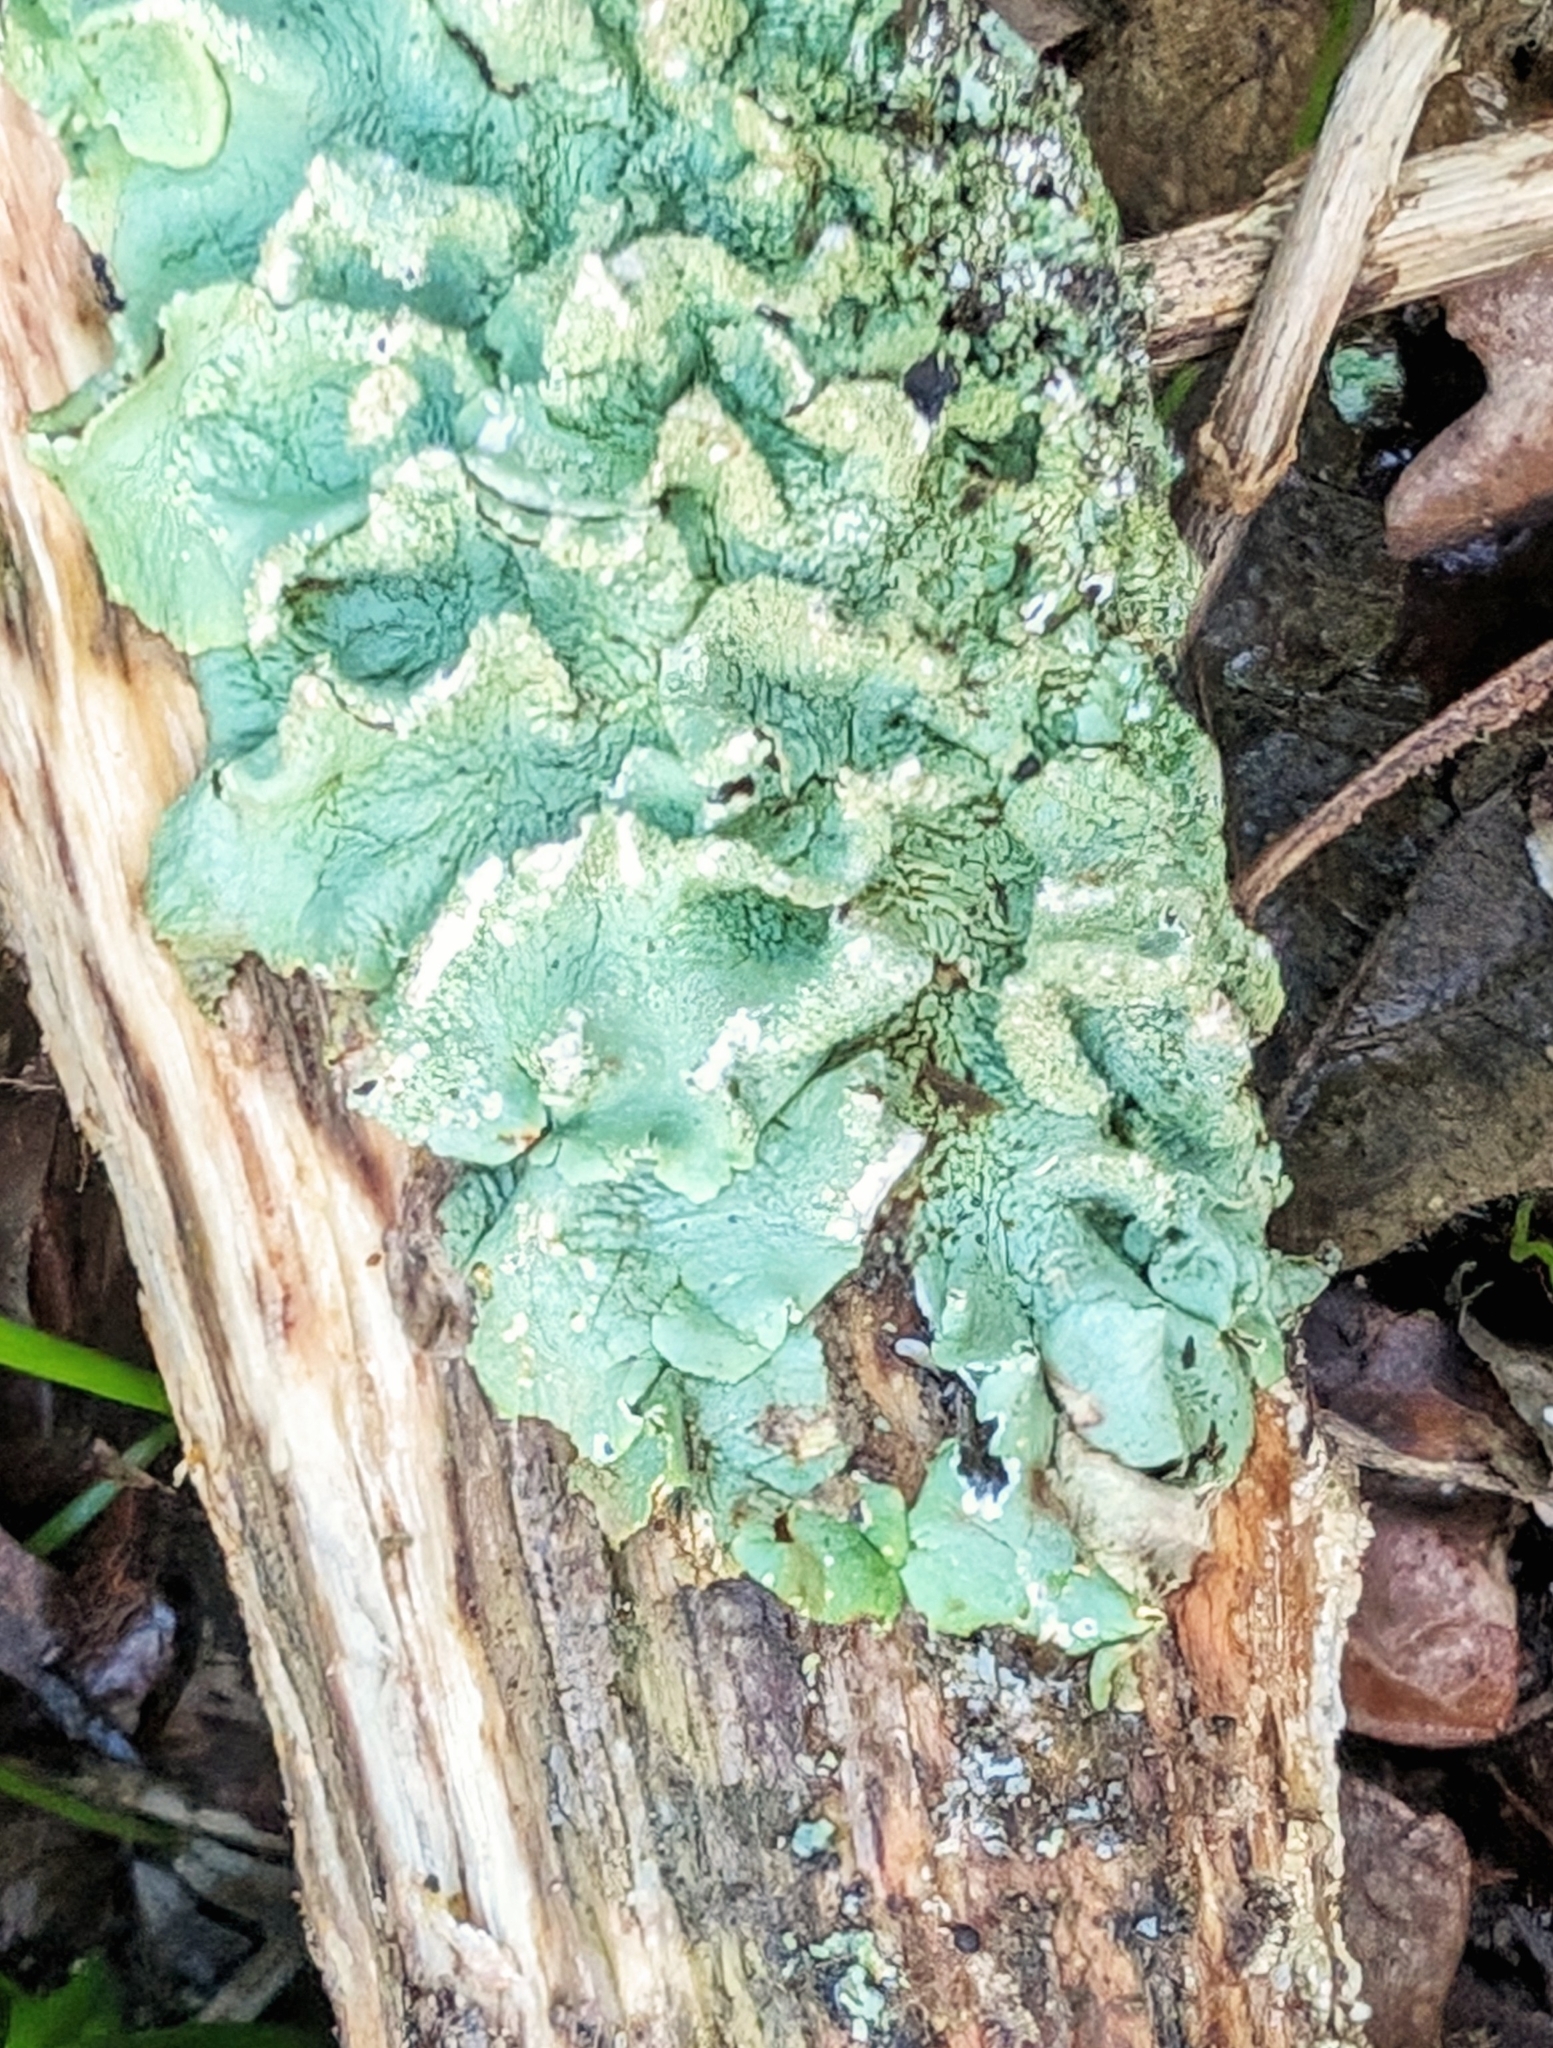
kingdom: Fungi
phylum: Ascomycota
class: Lecanoromycetes
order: Lecanorales
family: Parmeliaceae
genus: Flavoparmelia
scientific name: Flavoparmelia caperata
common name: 40-mile per hour lichen
